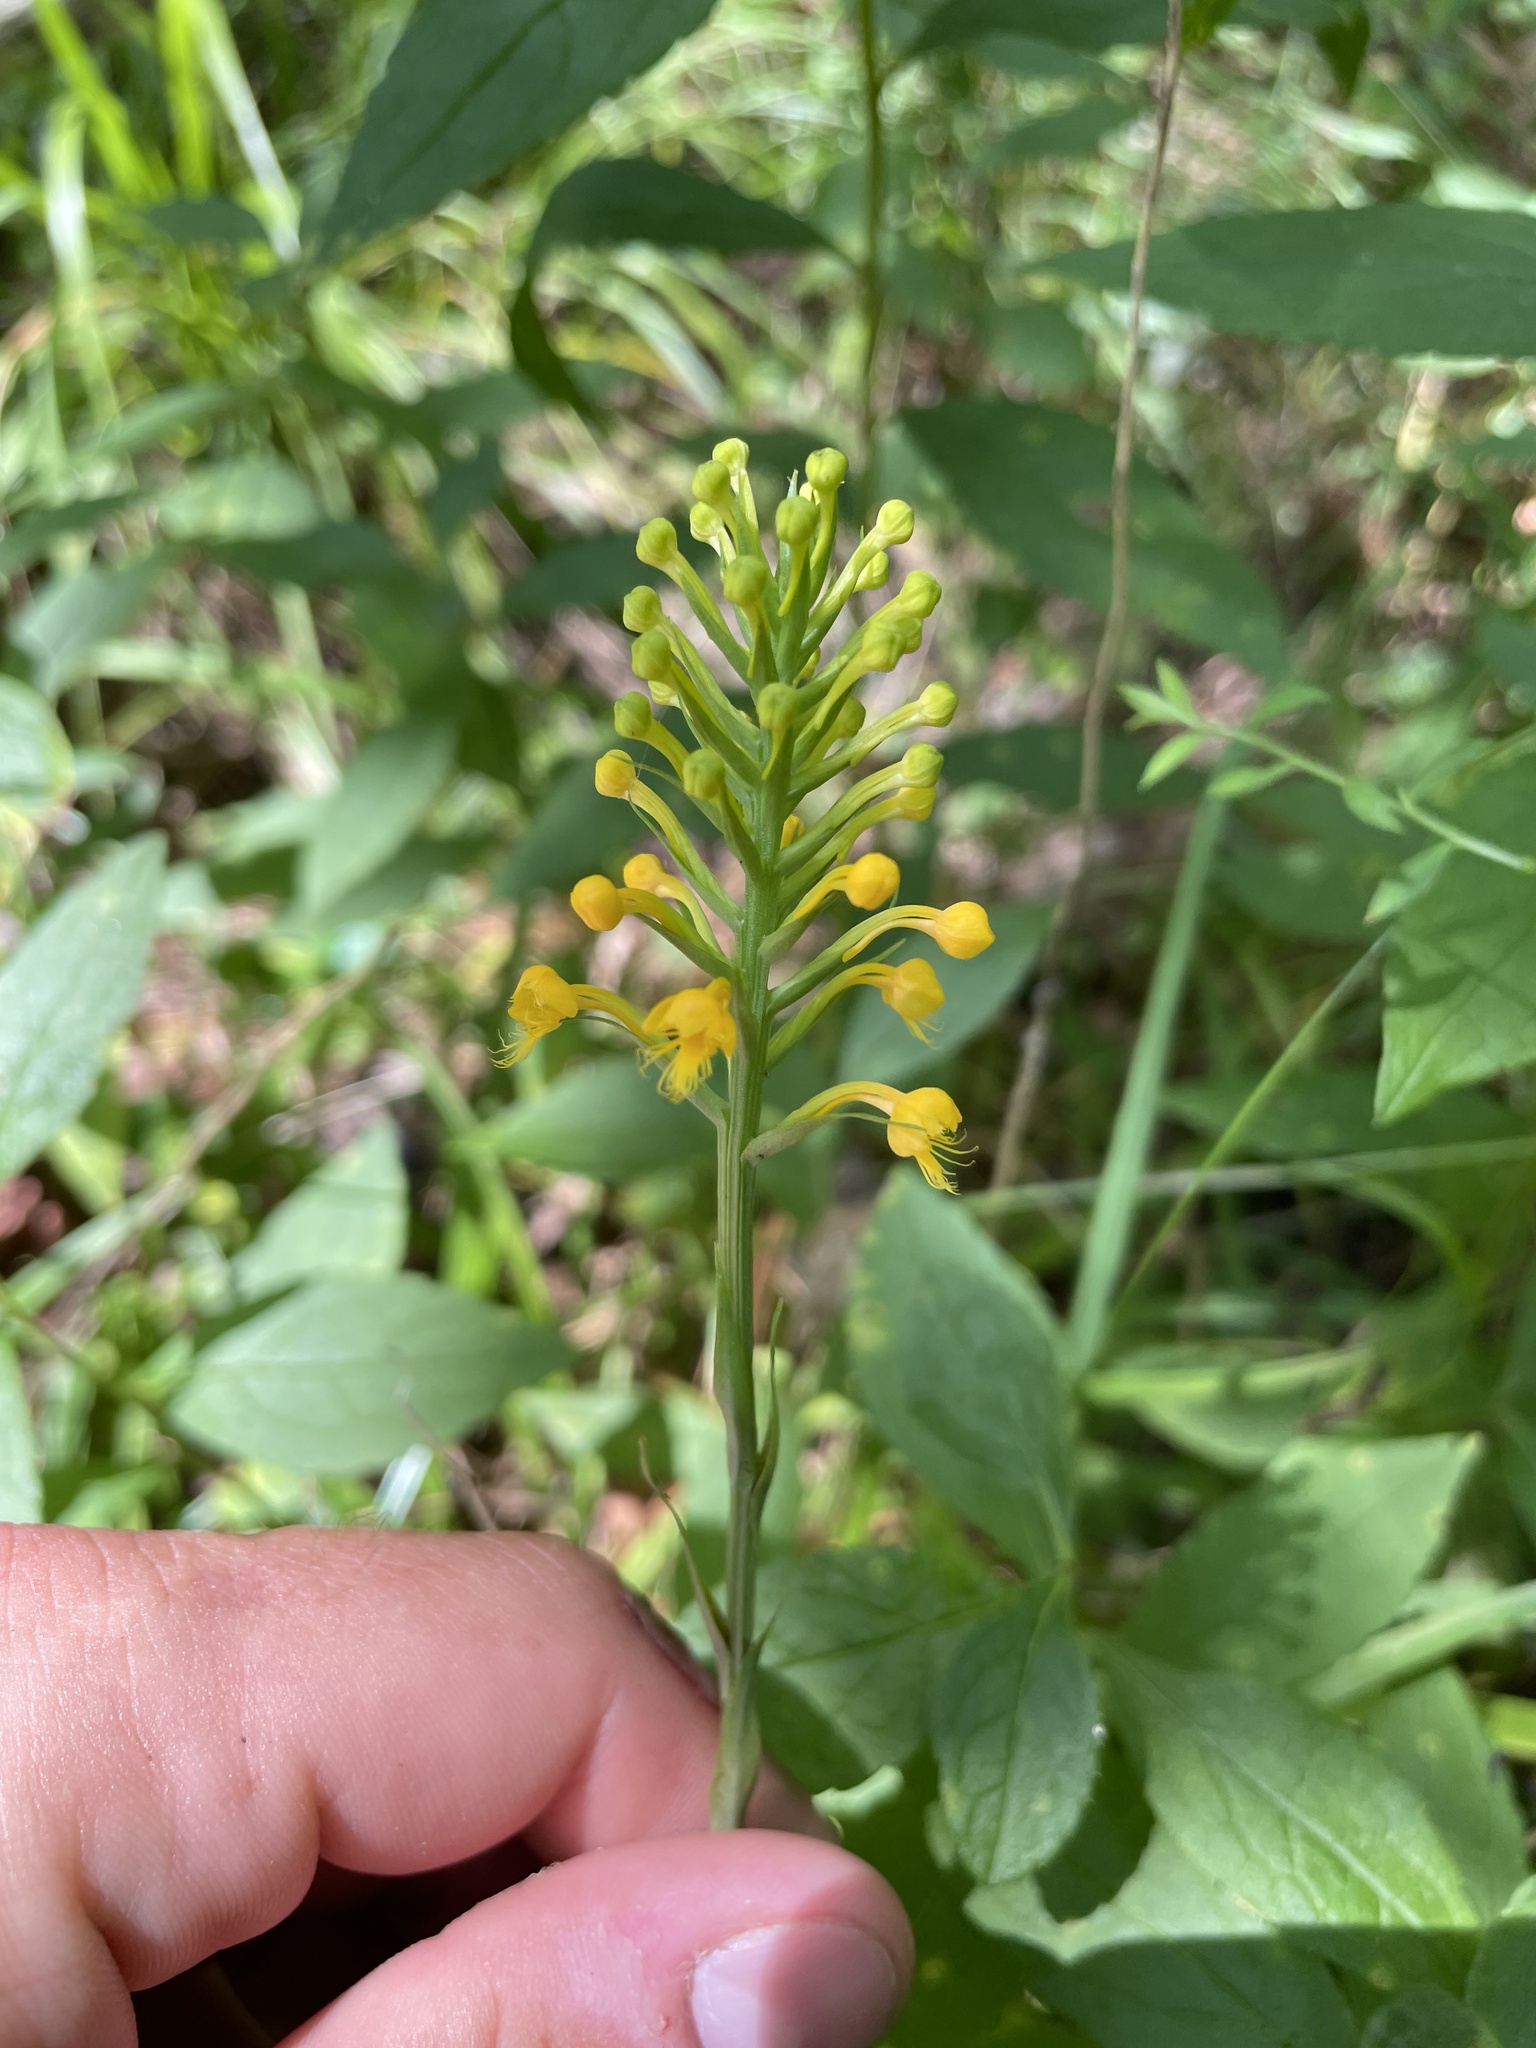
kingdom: Plantae
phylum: Tracheophyta
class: Liliopsida
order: Asparagales
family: Orchidaceae
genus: Platanthera
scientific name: Platanthera cristata
